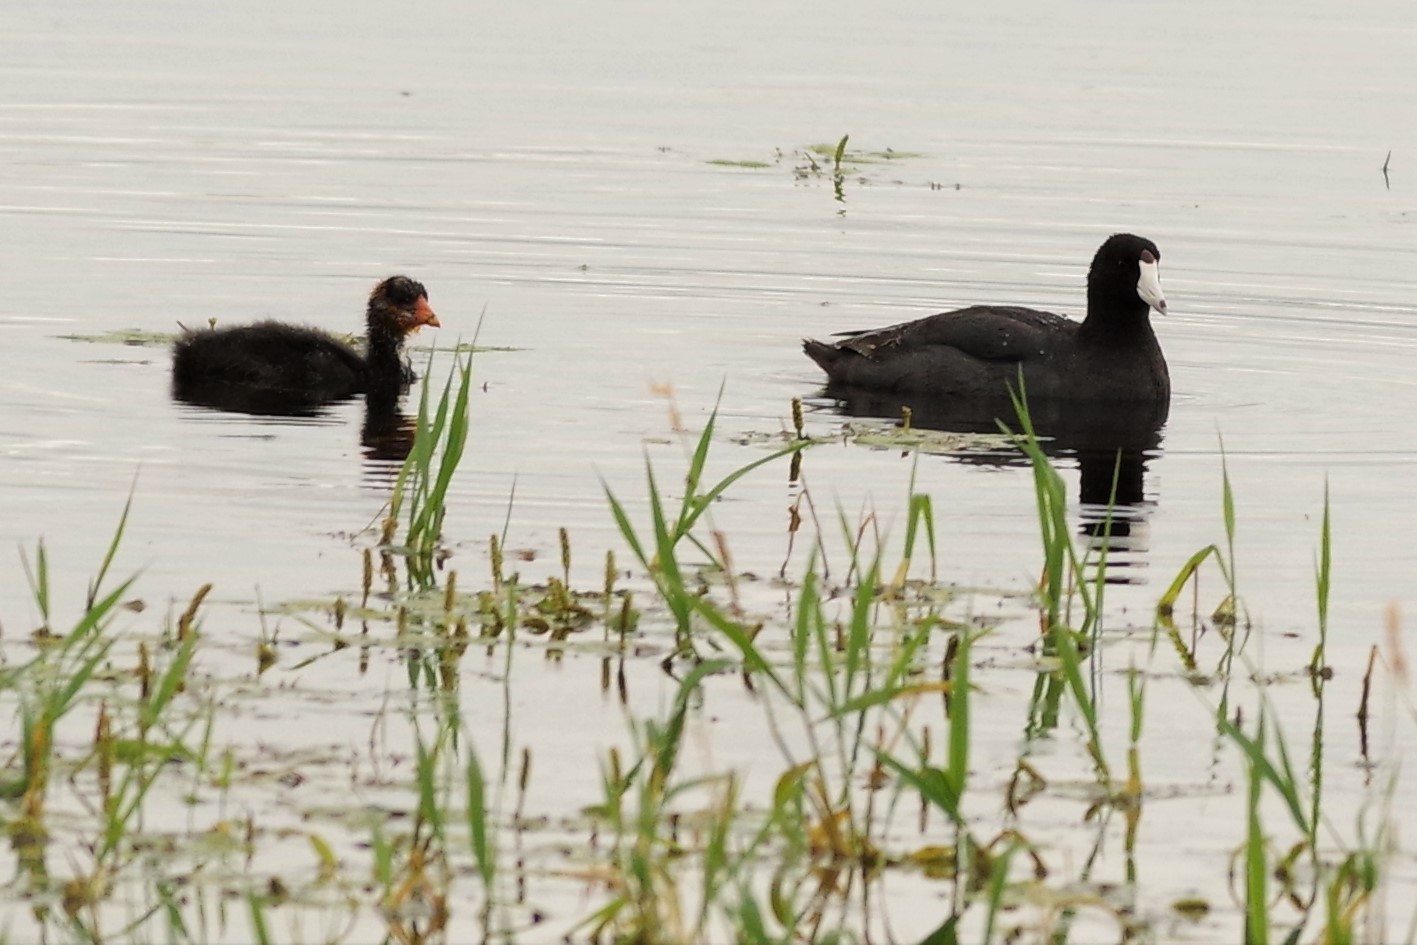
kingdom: Animalia
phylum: Chordata
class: Aves
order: Gruiformes
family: Rallidae
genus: Fulica
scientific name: Fulica americana
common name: American coot
